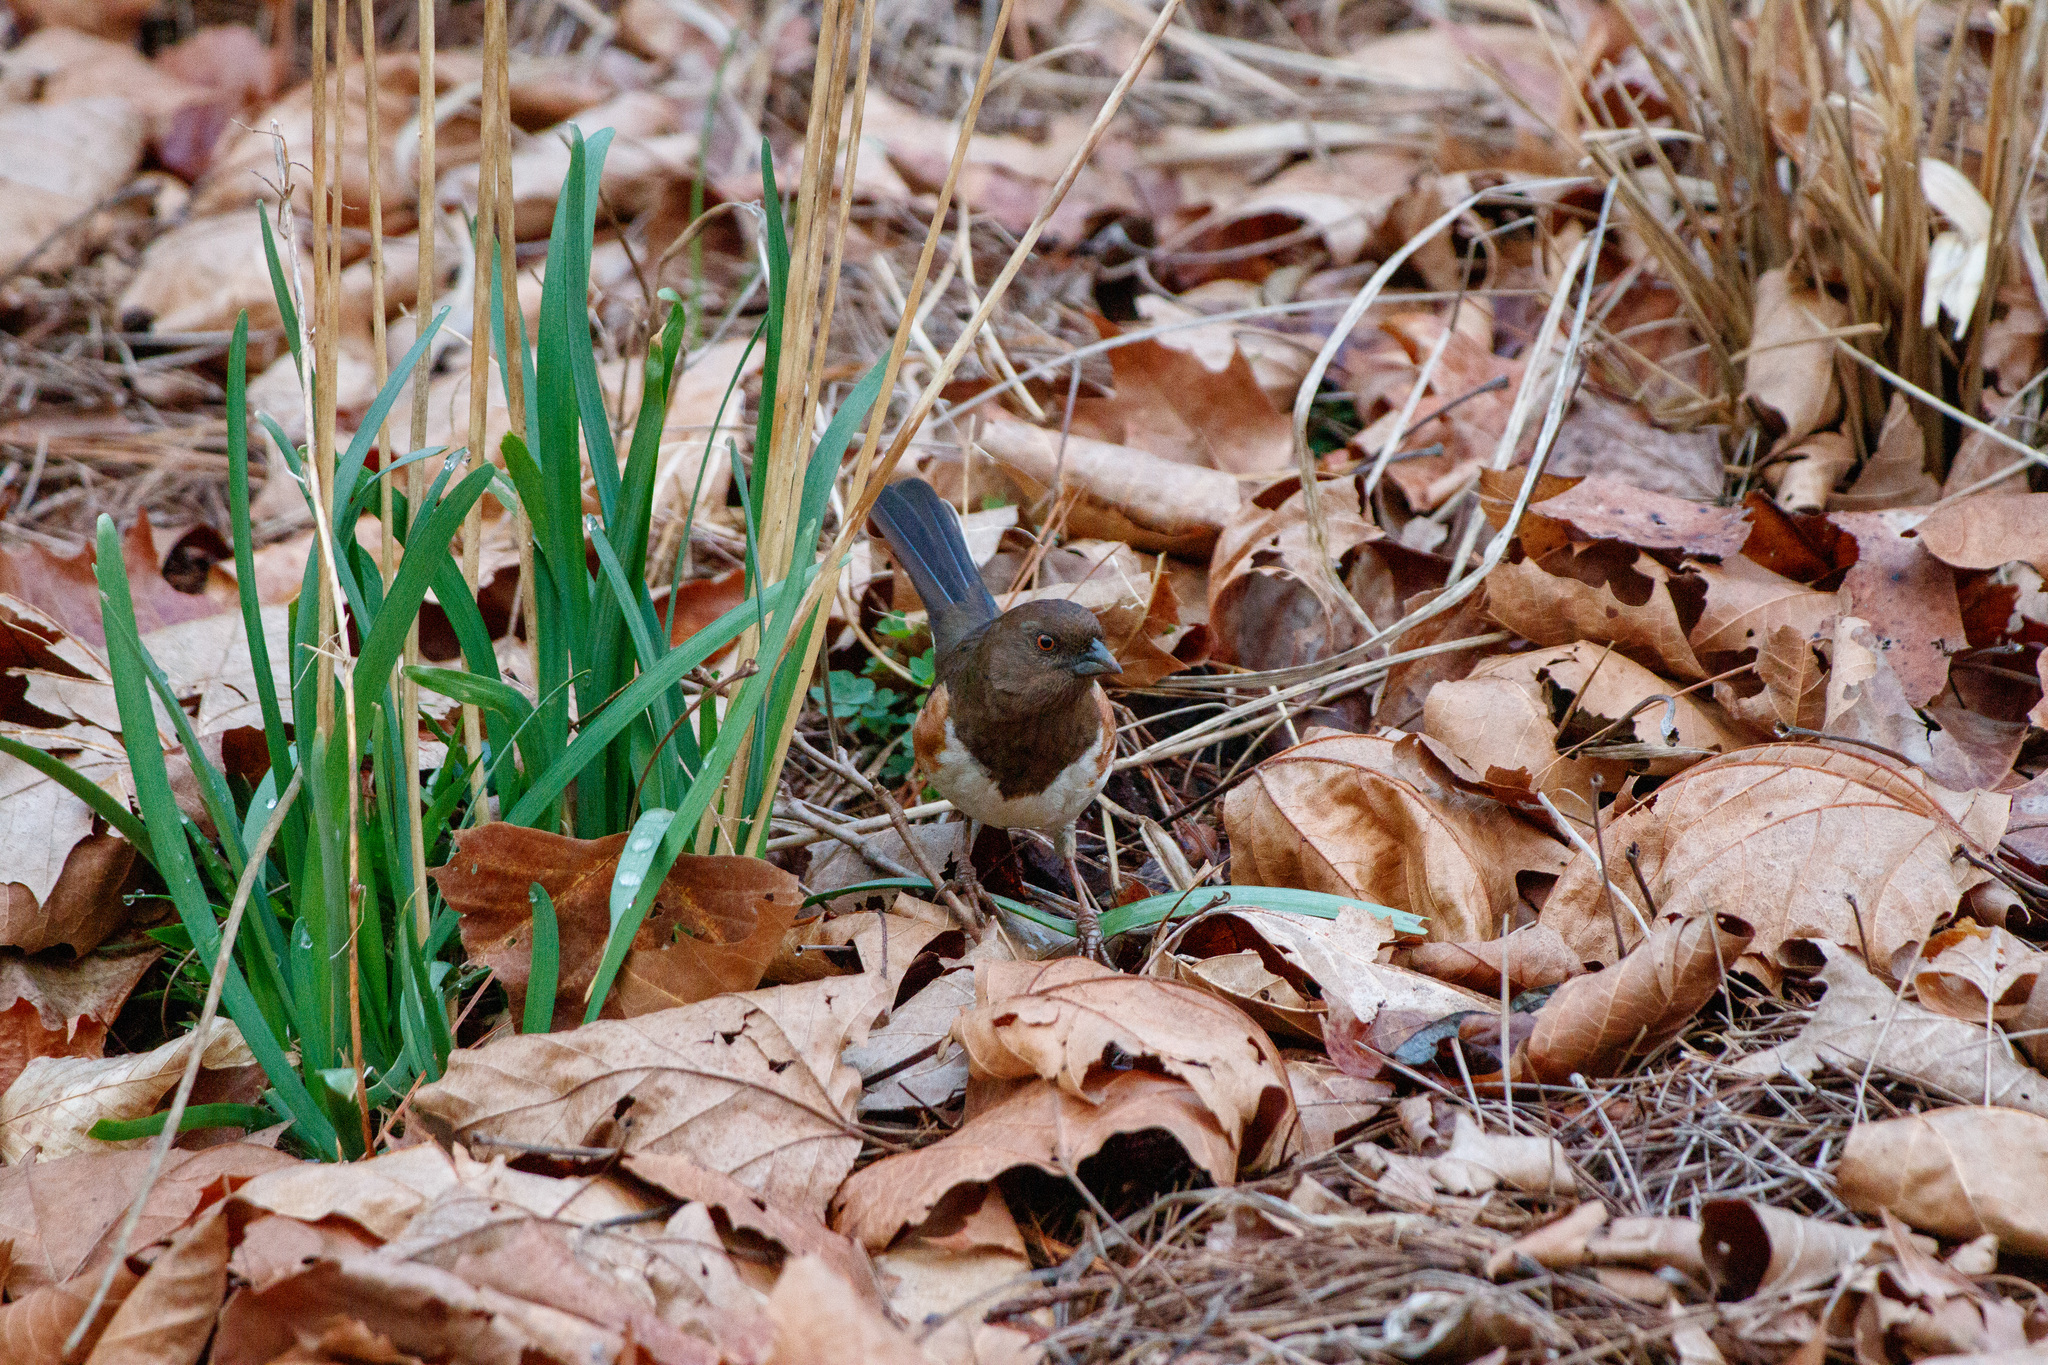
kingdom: Animalia
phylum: Chordata
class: Aves
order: Passeriformes
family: Passerellidae
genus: Pipilo
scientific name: Pipilo erythrophthalmus
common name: Eastern towhee
